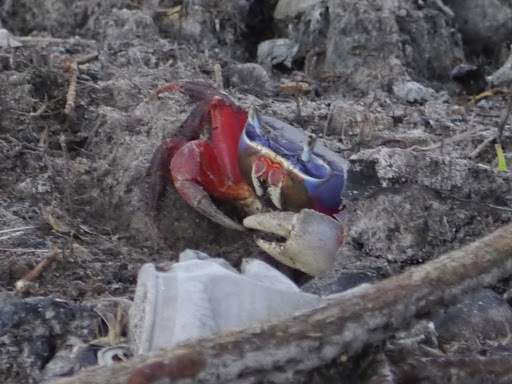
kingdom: Animalia
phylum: Arthropoda
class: Malacostraca
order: Decapoda
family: Gecarcinidae
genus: Cardisoma
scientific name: Cardisoma armatum
